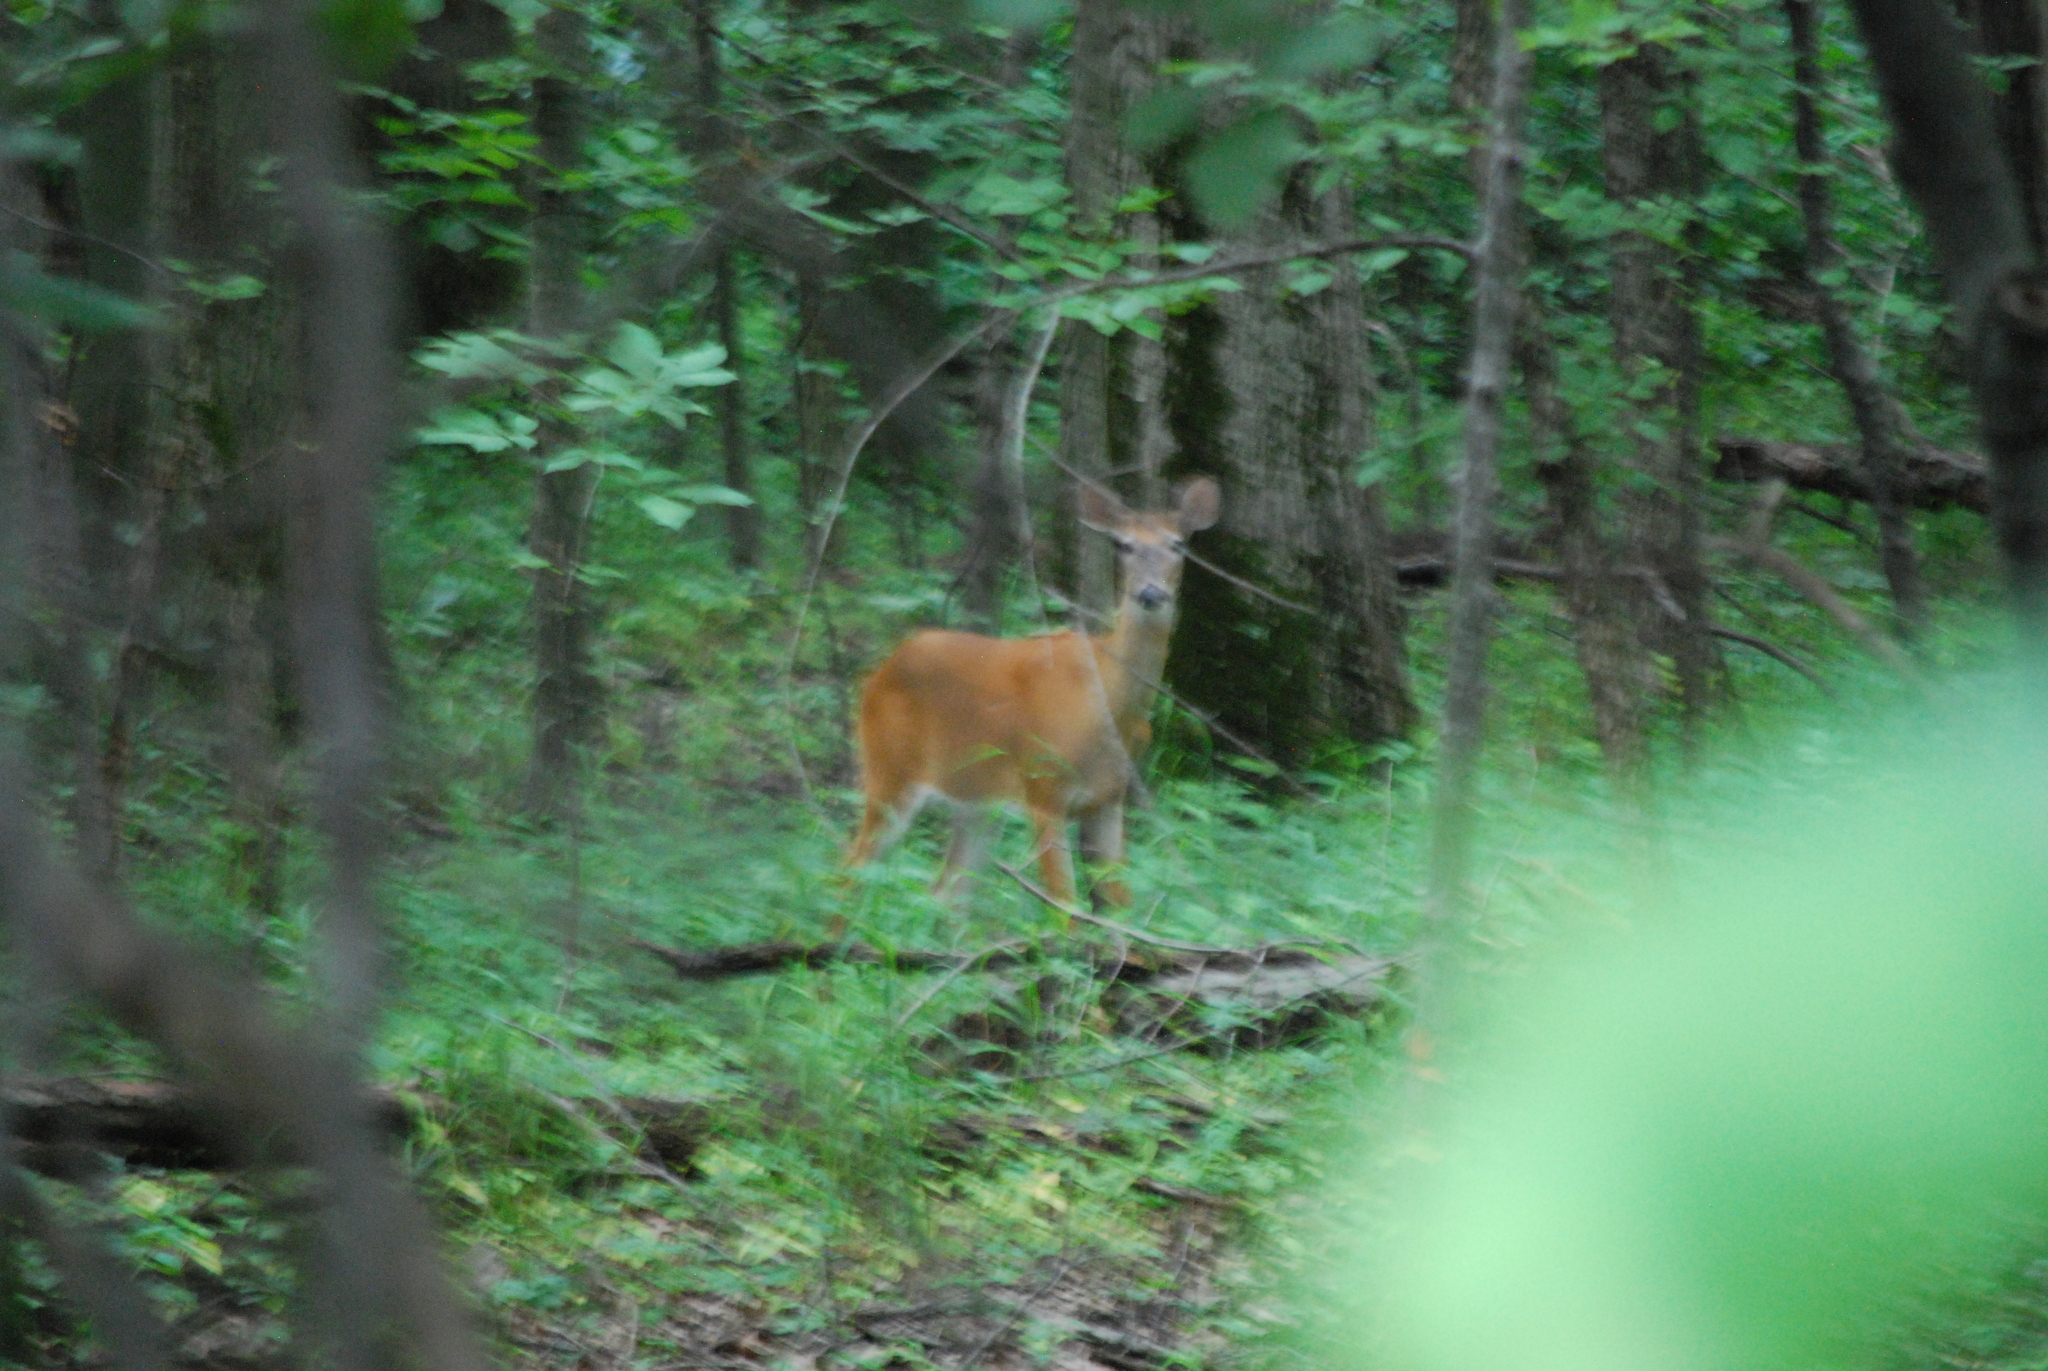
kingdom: Animalia
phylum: Chordata
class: Mammalia
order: Artiodactyla
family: Cervidae
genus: Odocoileus
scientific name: Odocoileus virginianus
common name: White-tailed deer
